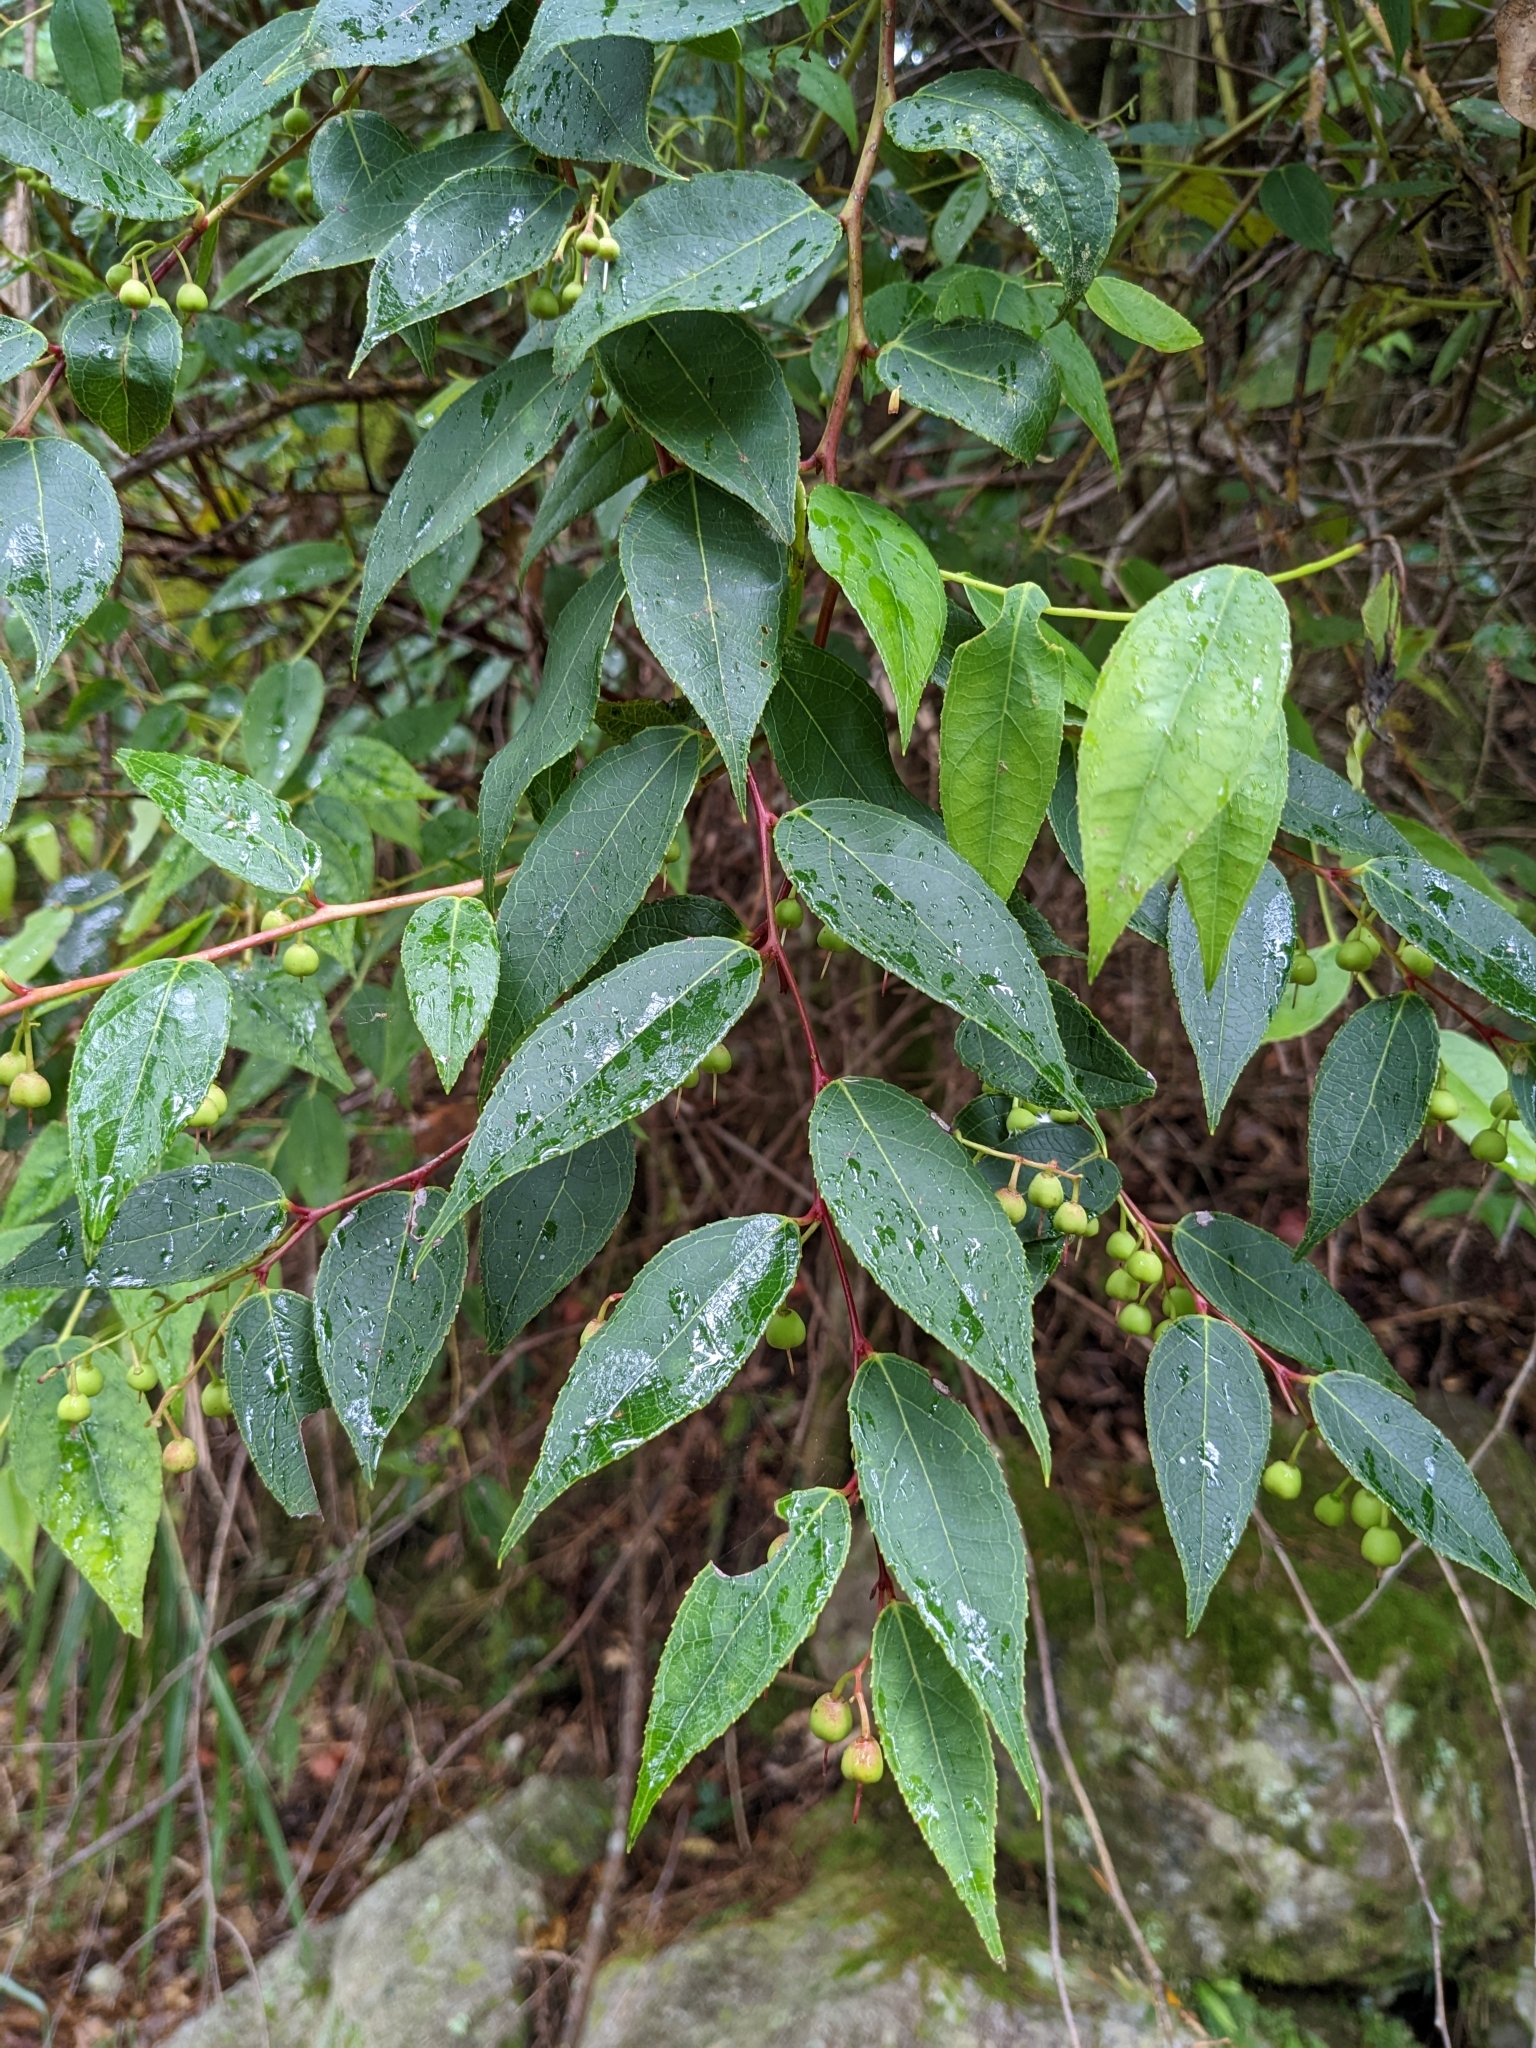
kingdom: Plantae
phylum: Tracheophyta
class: Magnoliopsida
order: Ericales
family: Ericaceae
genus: Gaultheria
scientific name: Gaultheria leucocarpa
